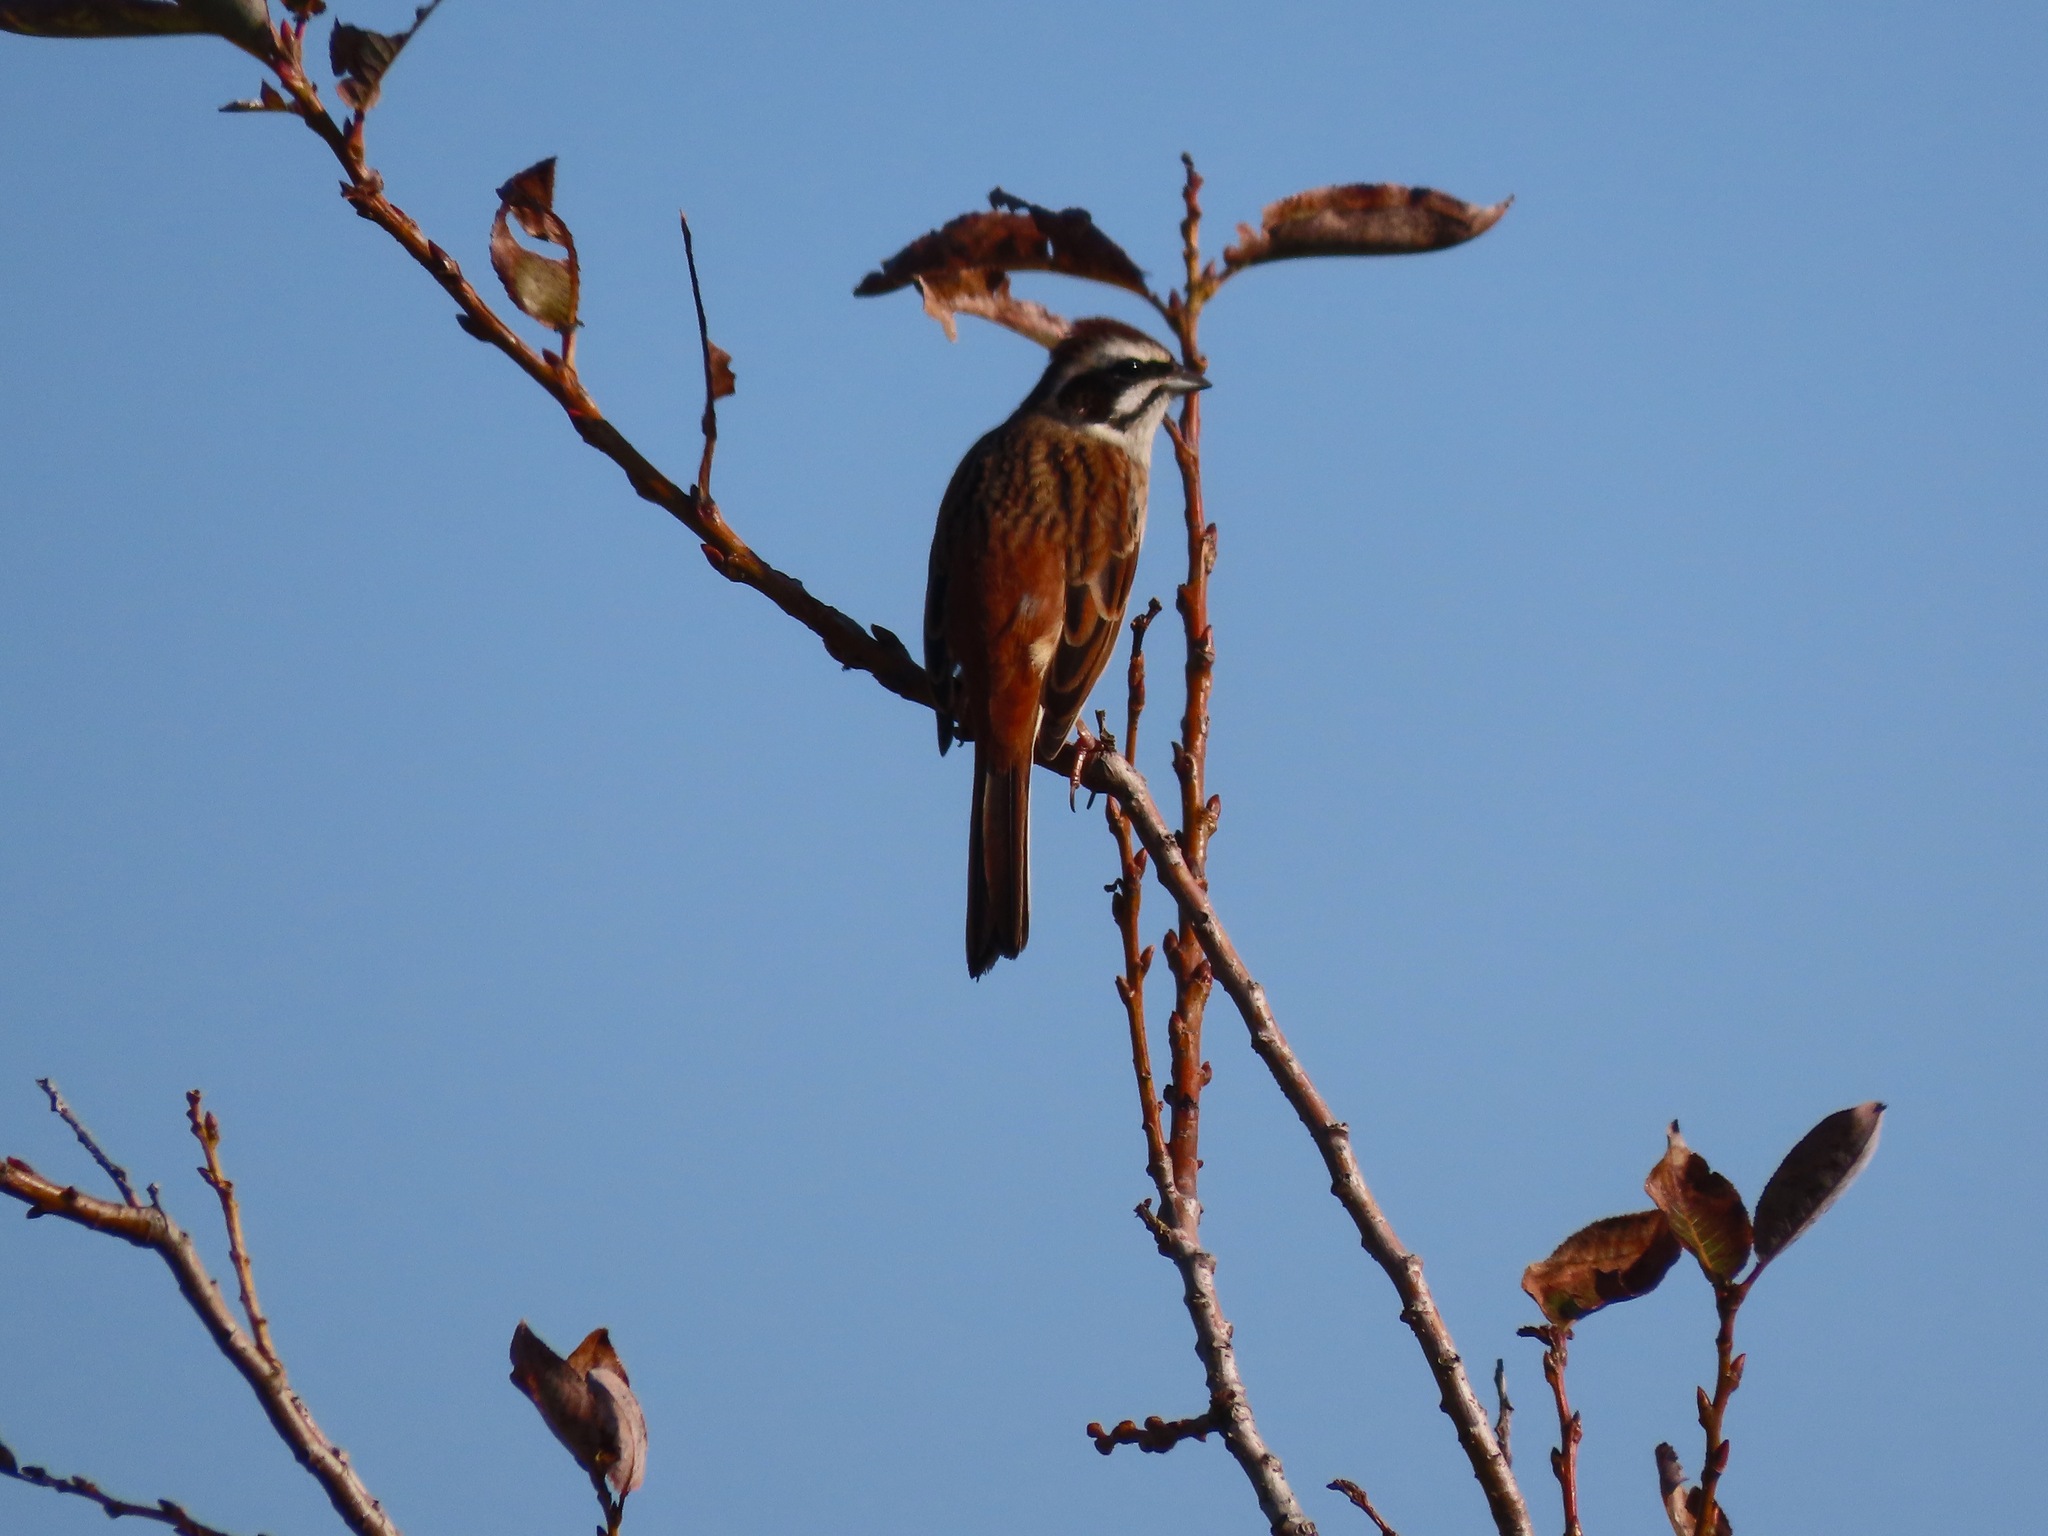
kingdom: Animalia
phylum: Chordata
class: Aves
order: Passeriformes
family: Emberizidae
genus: Emberiza
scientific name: Emberiza cioides
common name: Meadow bunting
